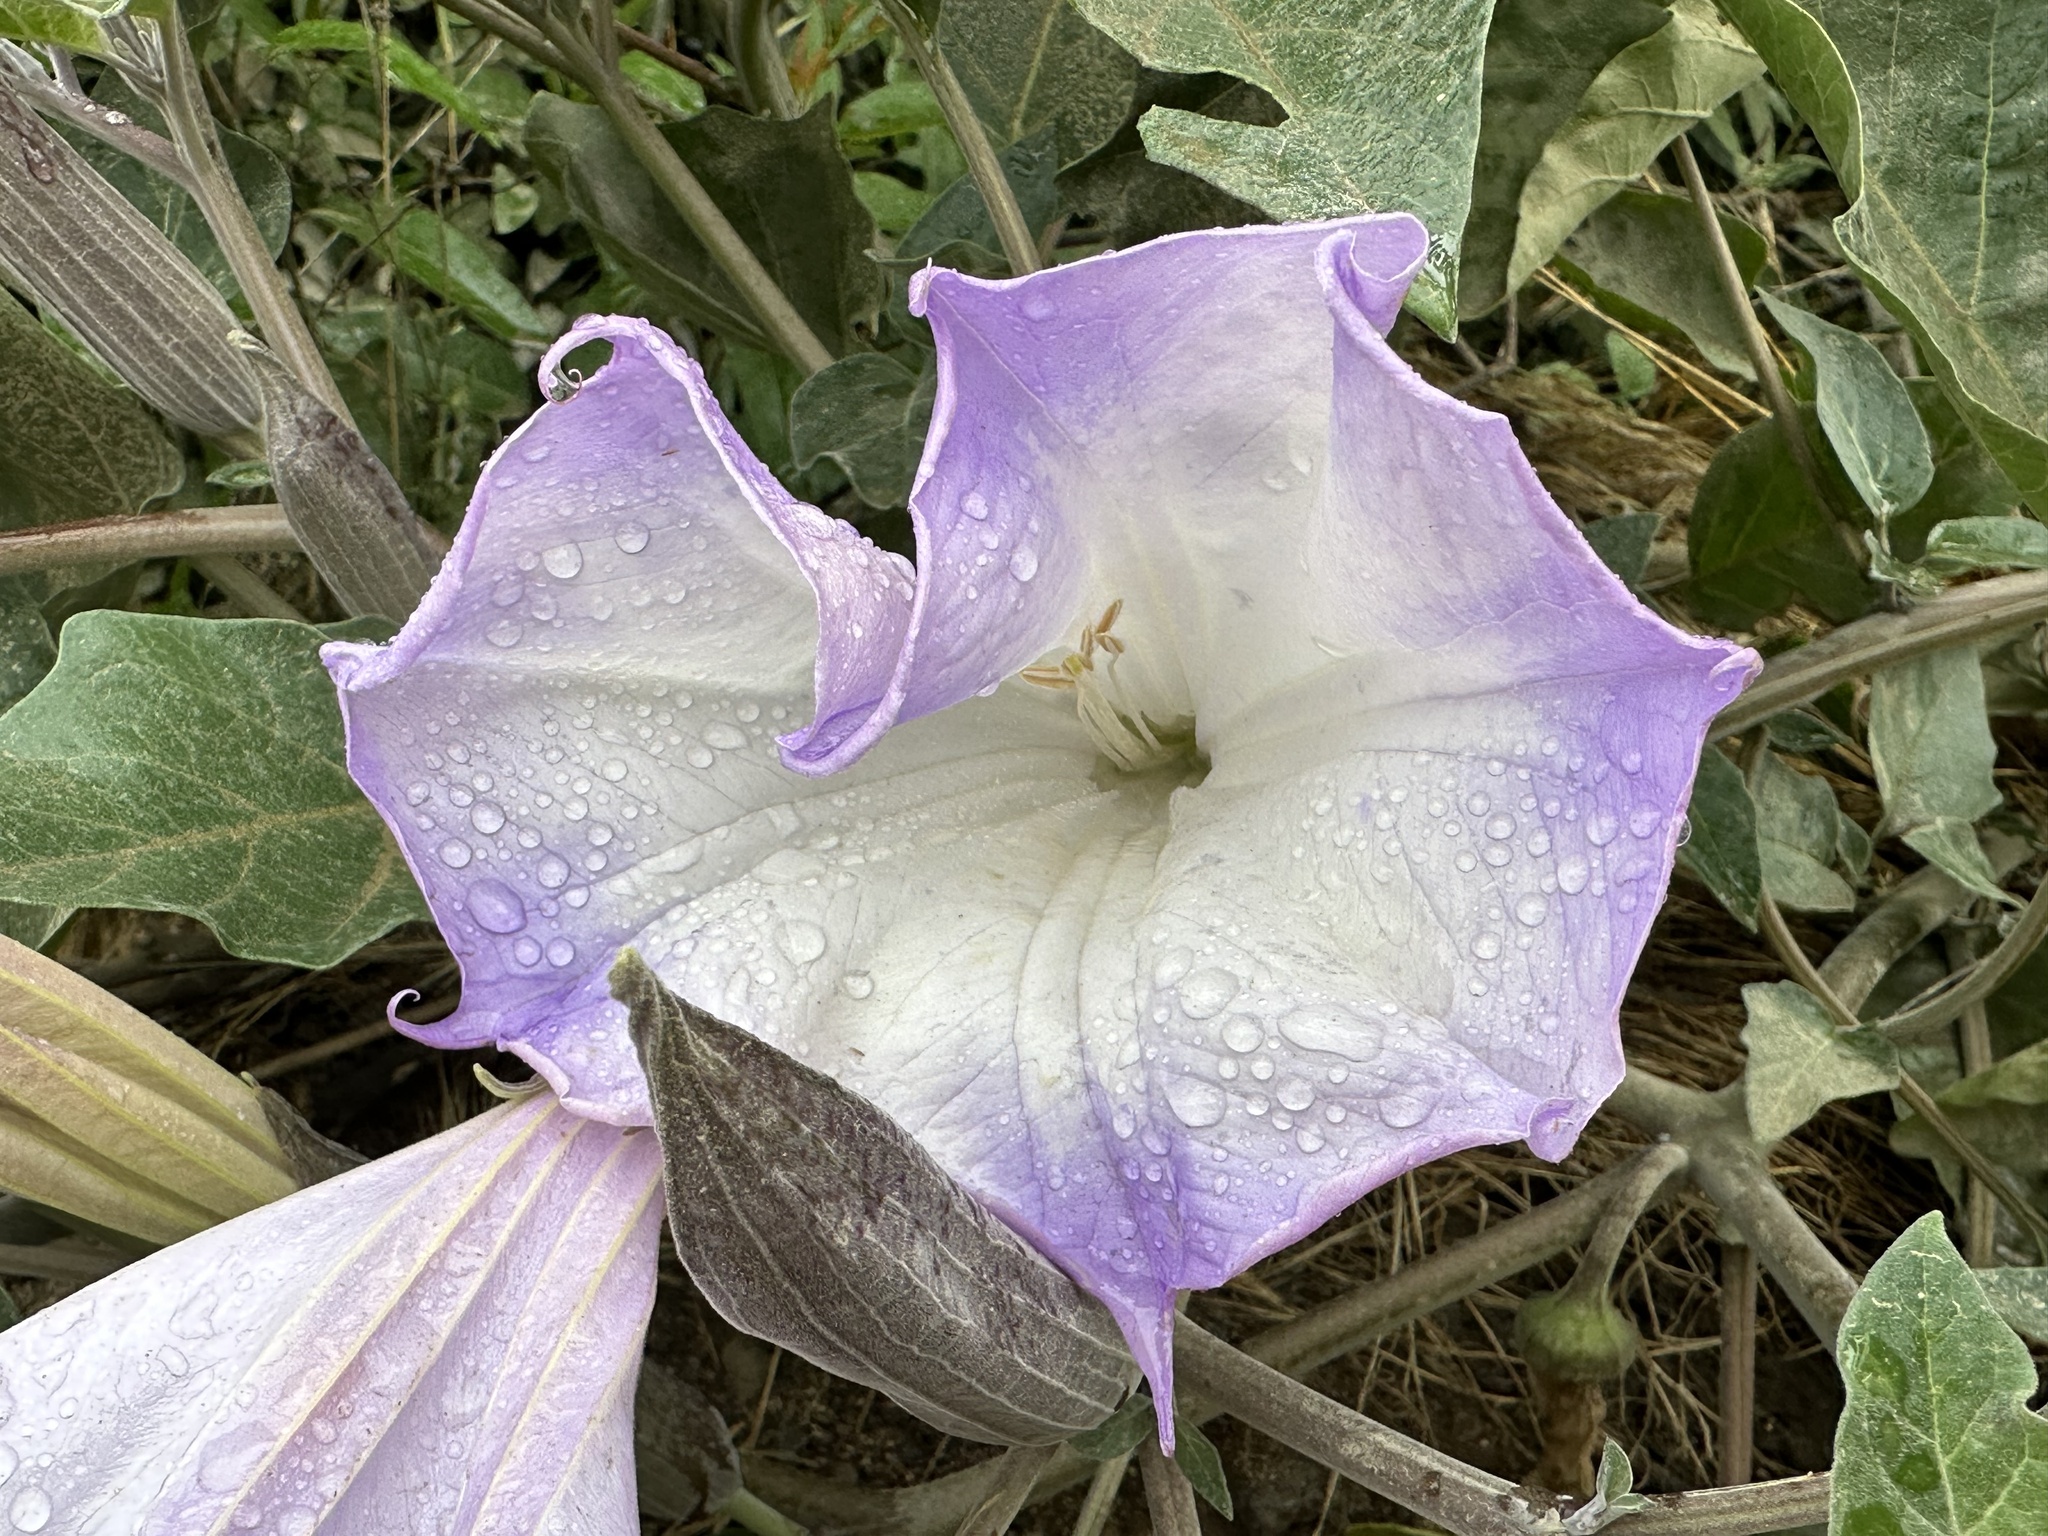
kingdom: Plantae
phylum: Tracheophyta
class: Magnoliopsida
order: Solanales
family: Solanaceae
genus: Datura
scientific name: Datura wrightii
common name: Sacred thorn-apple
